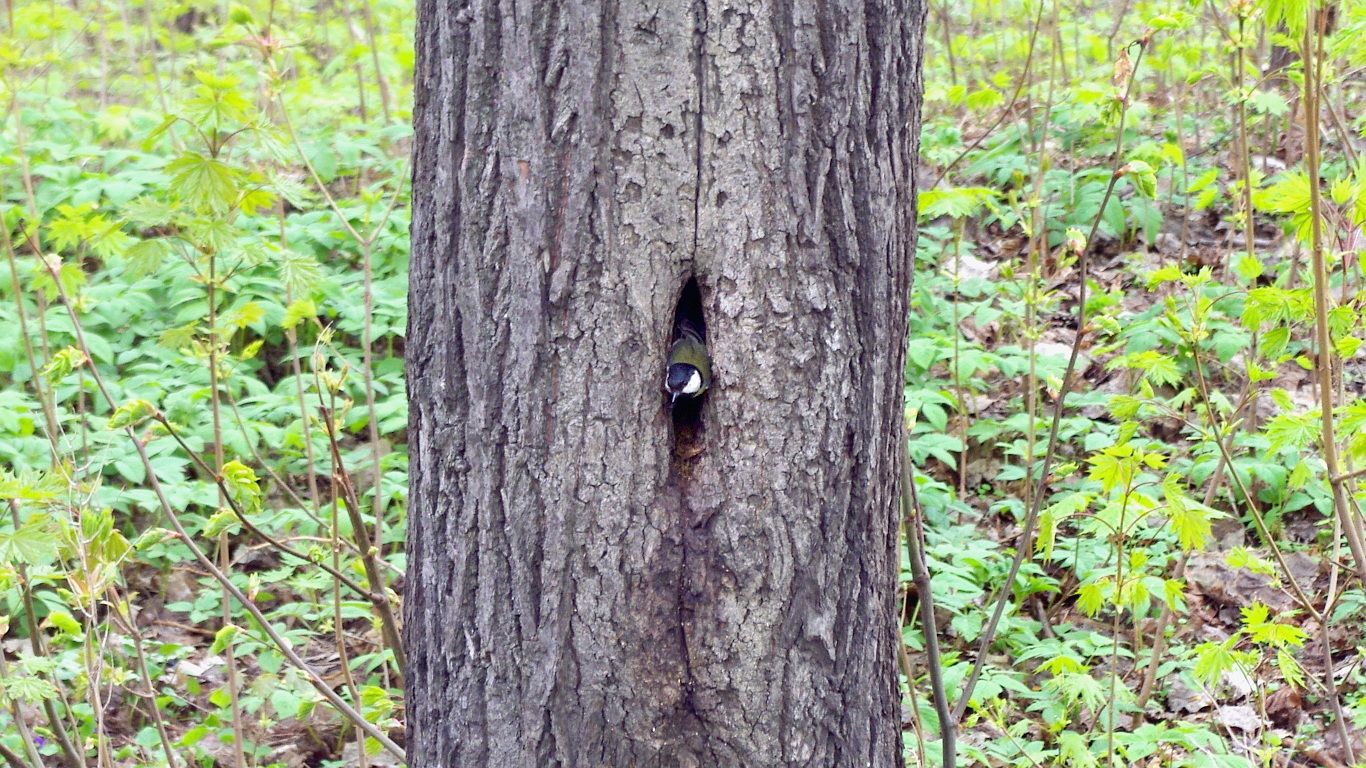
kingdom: Animalia
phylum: Chordata
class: Aves
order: Passeriformes
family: Paridae
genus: Parus
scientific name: Parus major
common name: Great tit
